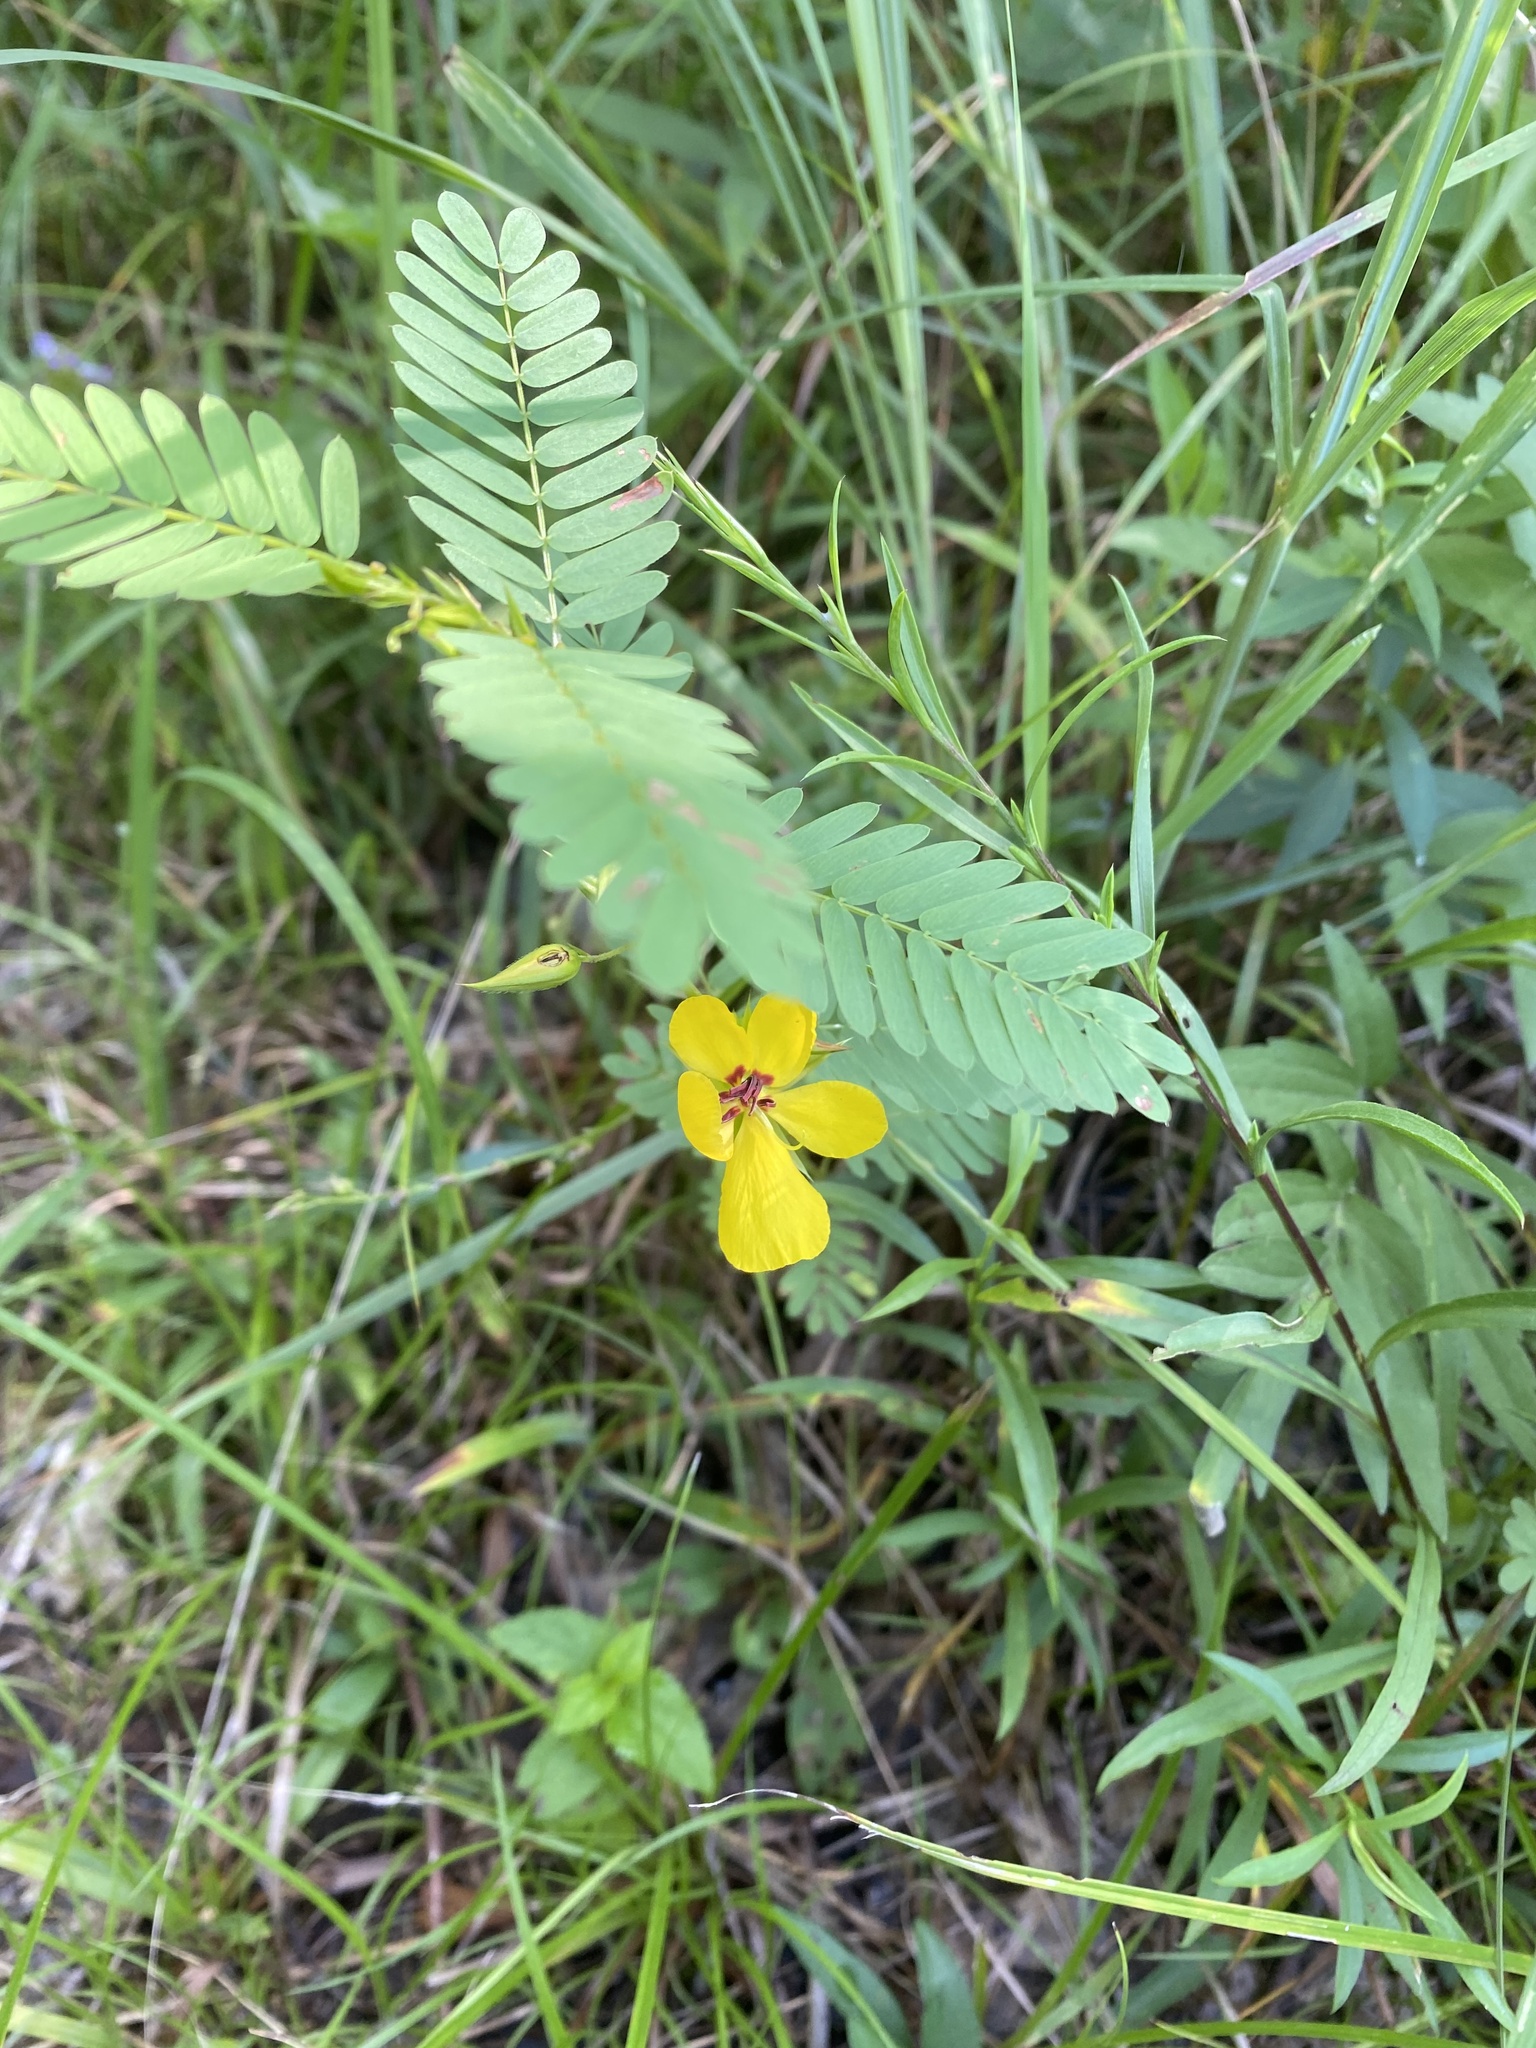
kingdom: Plantae
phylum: Tracheophyta
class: Magnoliopsida
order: Fabales
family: Fabaceae
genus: Chamaecrista
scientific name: Chamaecrista fasciculata
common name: Golden cassia
